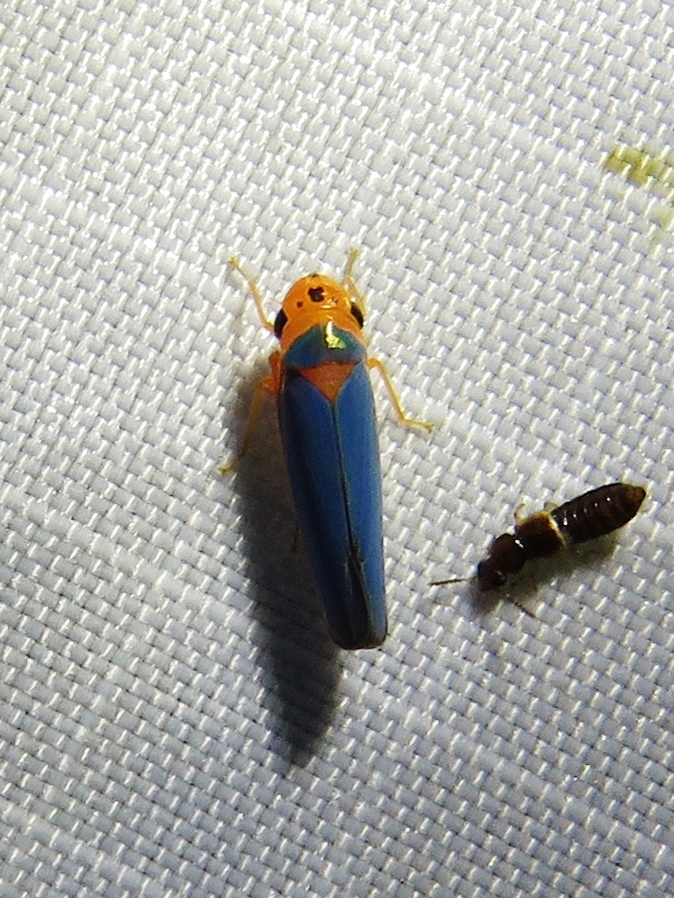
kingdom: Animalia
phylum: Arthropoda
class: Insecta
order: Hemiptera
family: Cicadellidae
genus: Macunolla
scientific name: Macunolla ventralis
